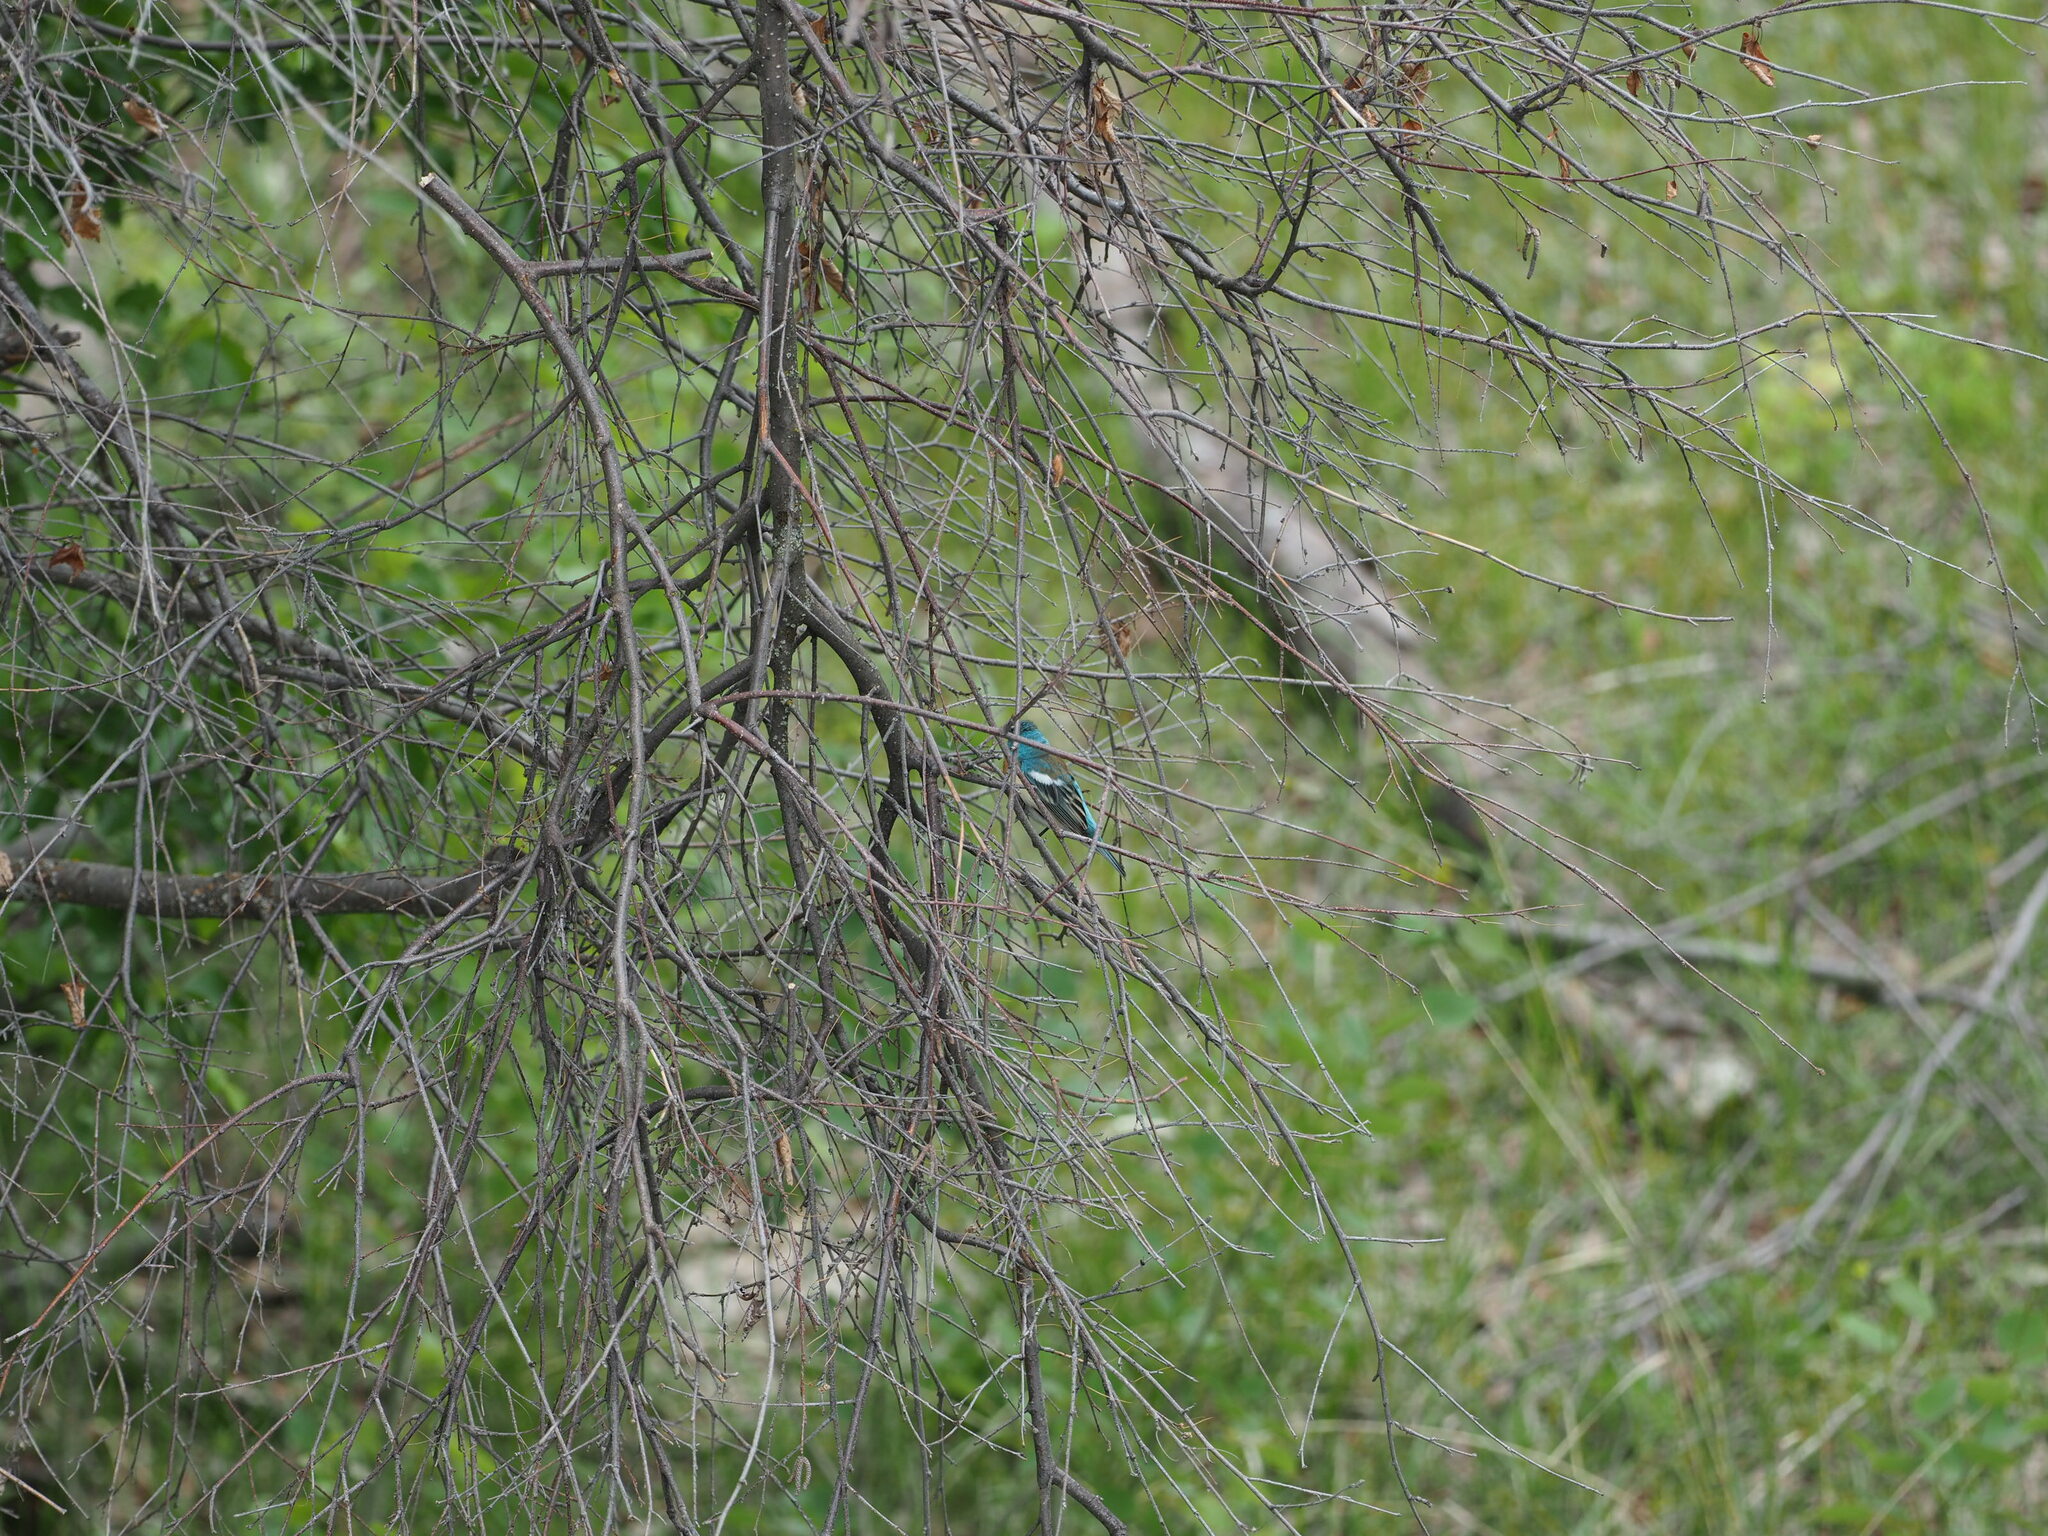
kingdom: Animalia
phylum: Chordata
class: Aves
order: Passeriformes
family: Cardinalidae
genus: Passerina
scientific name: Passerina amoena
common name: Lazuli bunting
